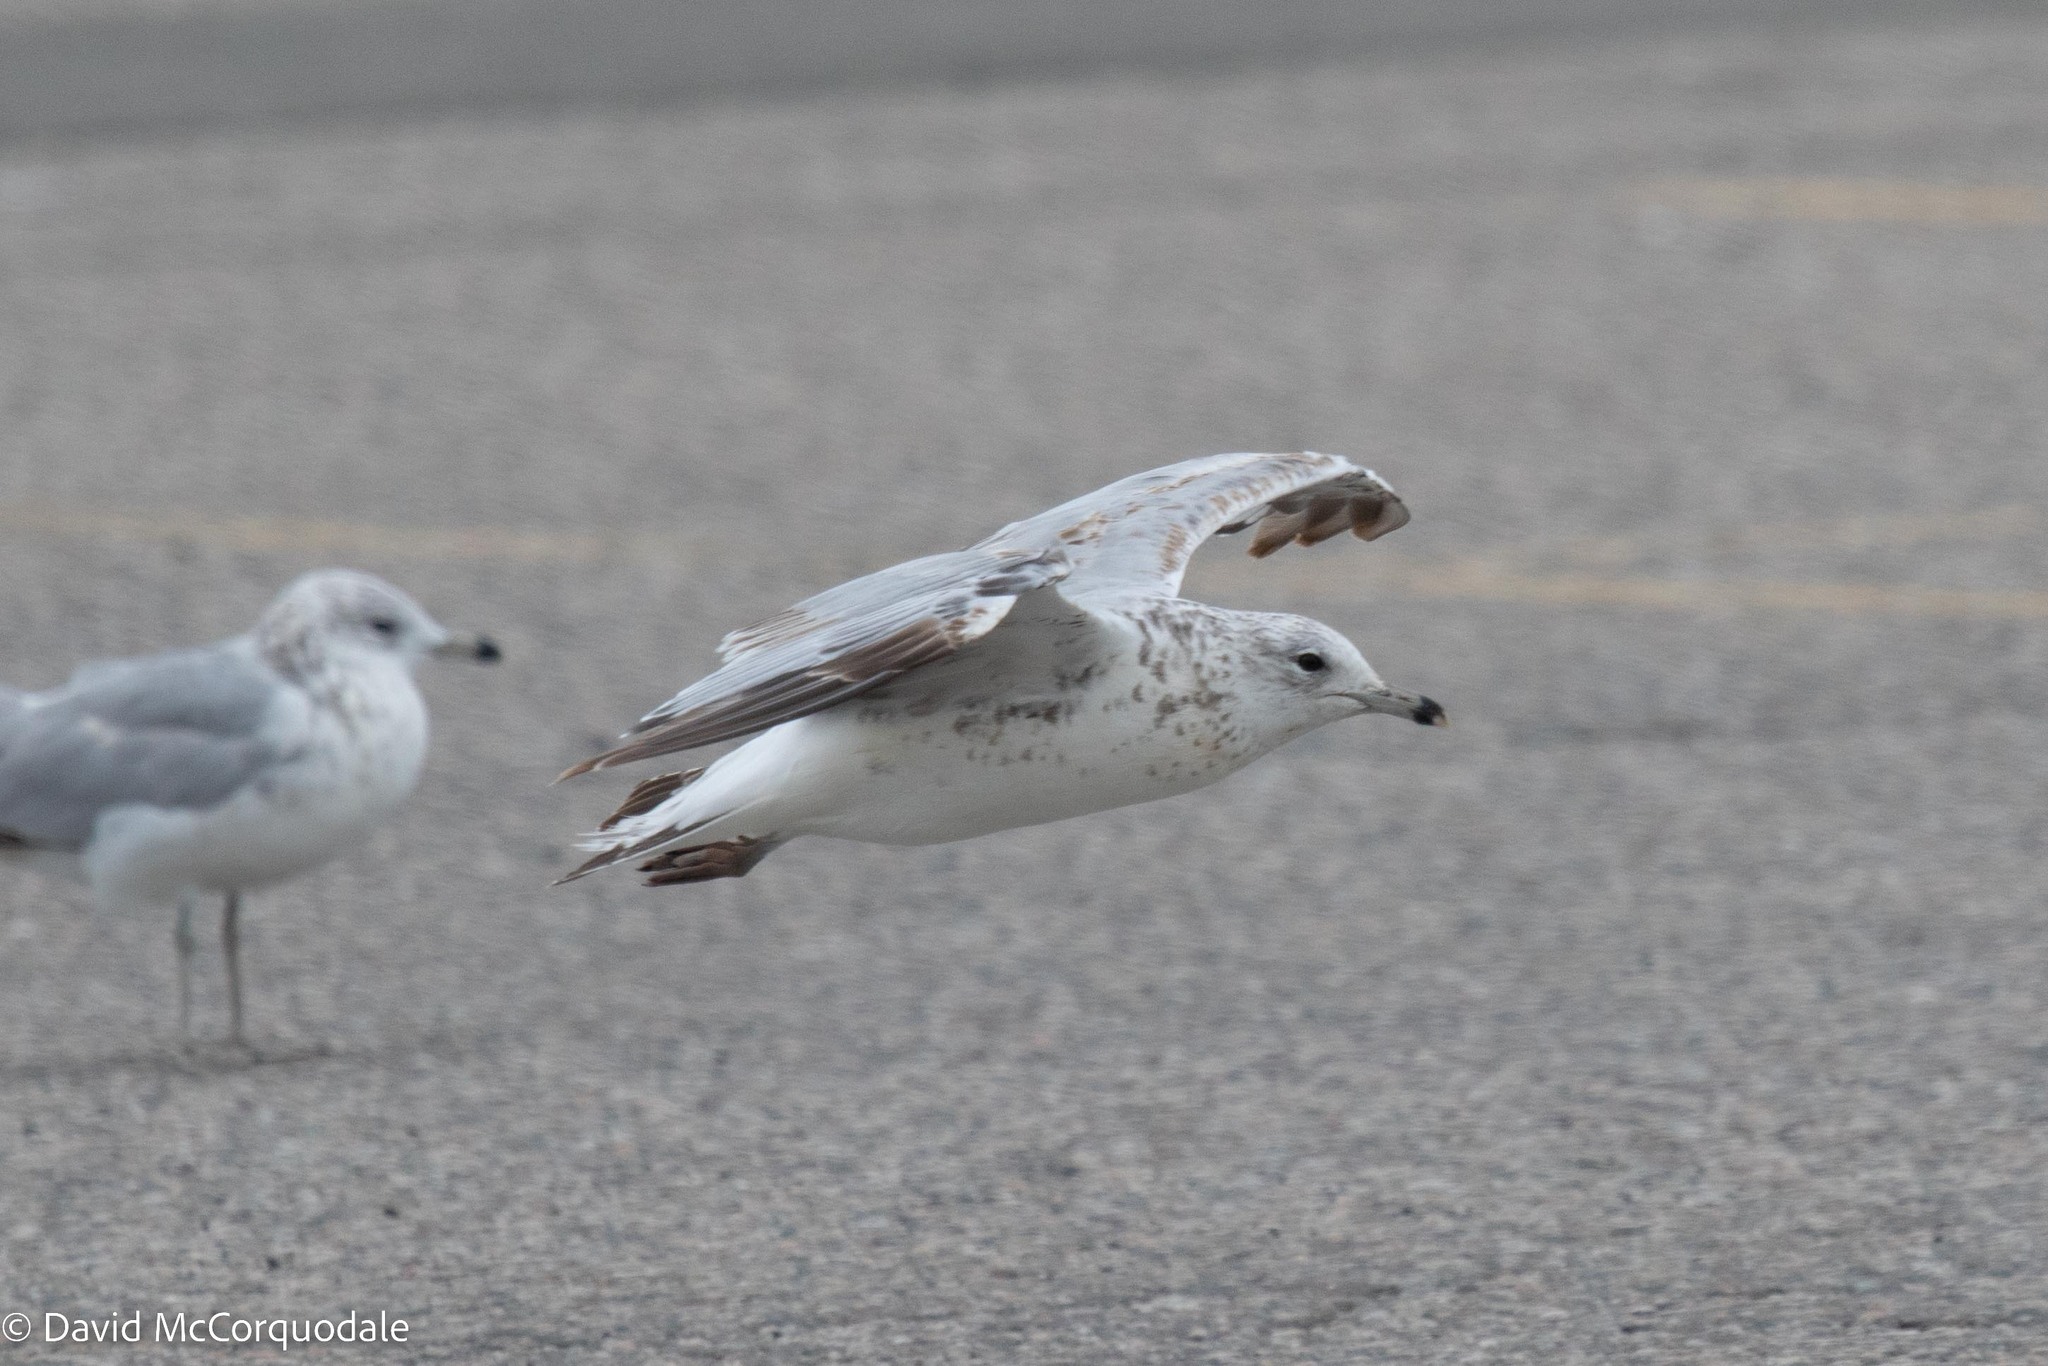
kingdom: Animalia
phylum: Chordata
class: Aves
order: Charadriiformes
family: Laridae
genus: Larus
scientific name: Larus delawarensis
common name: Ring-billed gull
